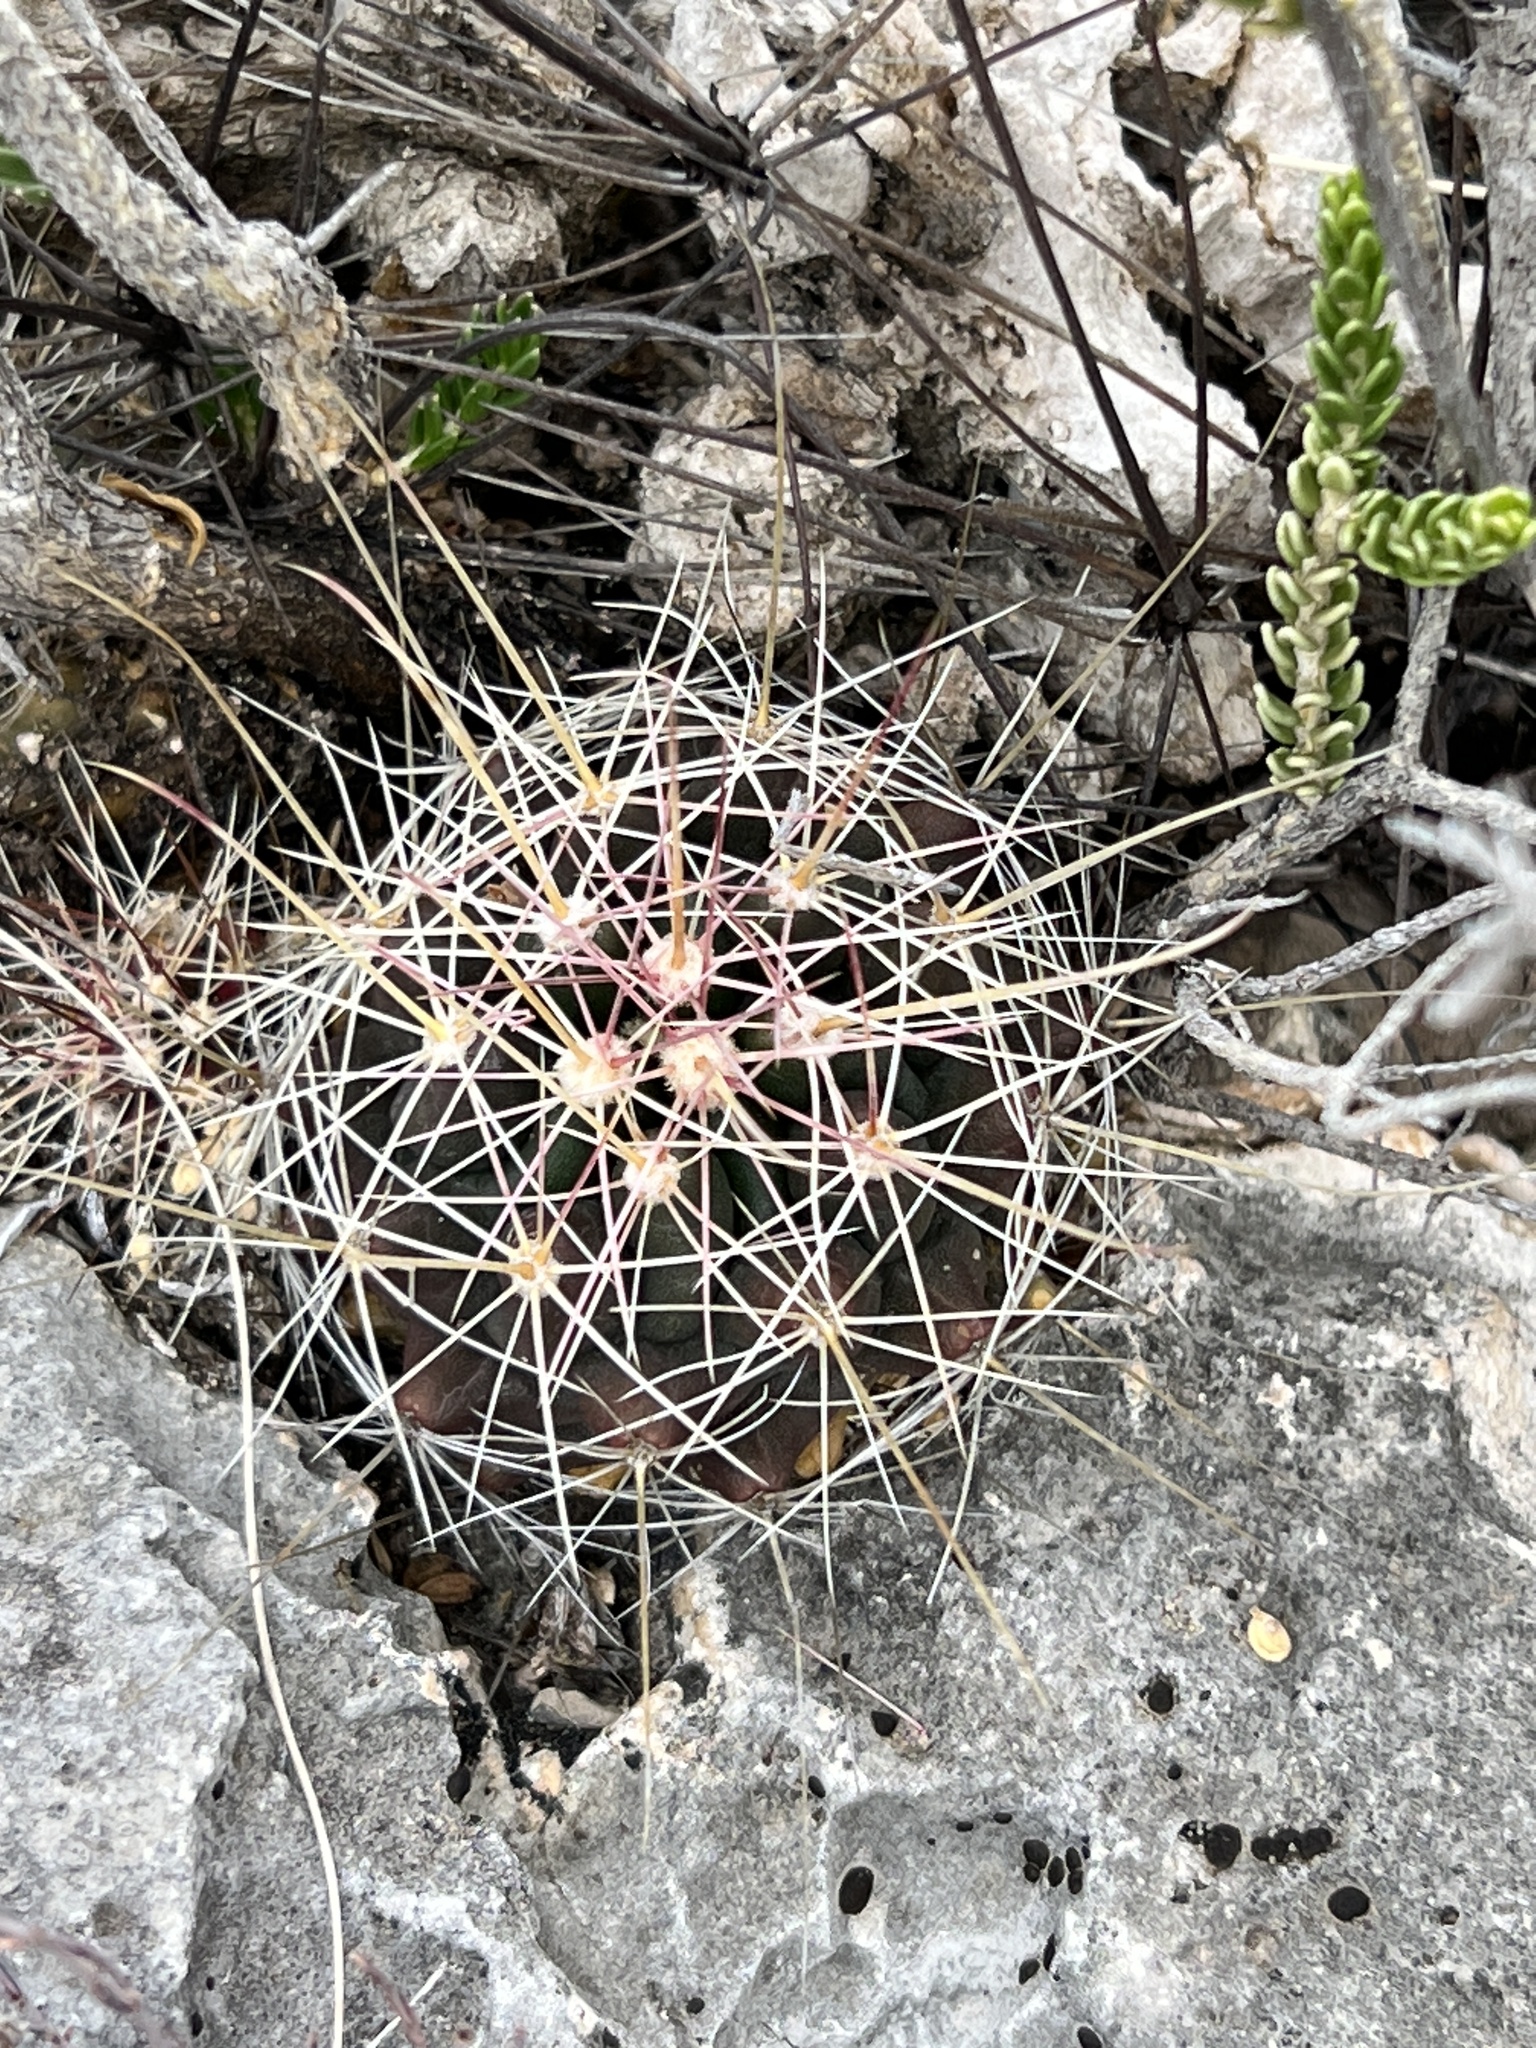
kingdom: Plantae
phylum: Tracheophyta
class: Magnoliopsida
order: Caryophyllales
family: Cactaceae
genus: Bisnaga
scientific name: Bisnaga hamatacantha
